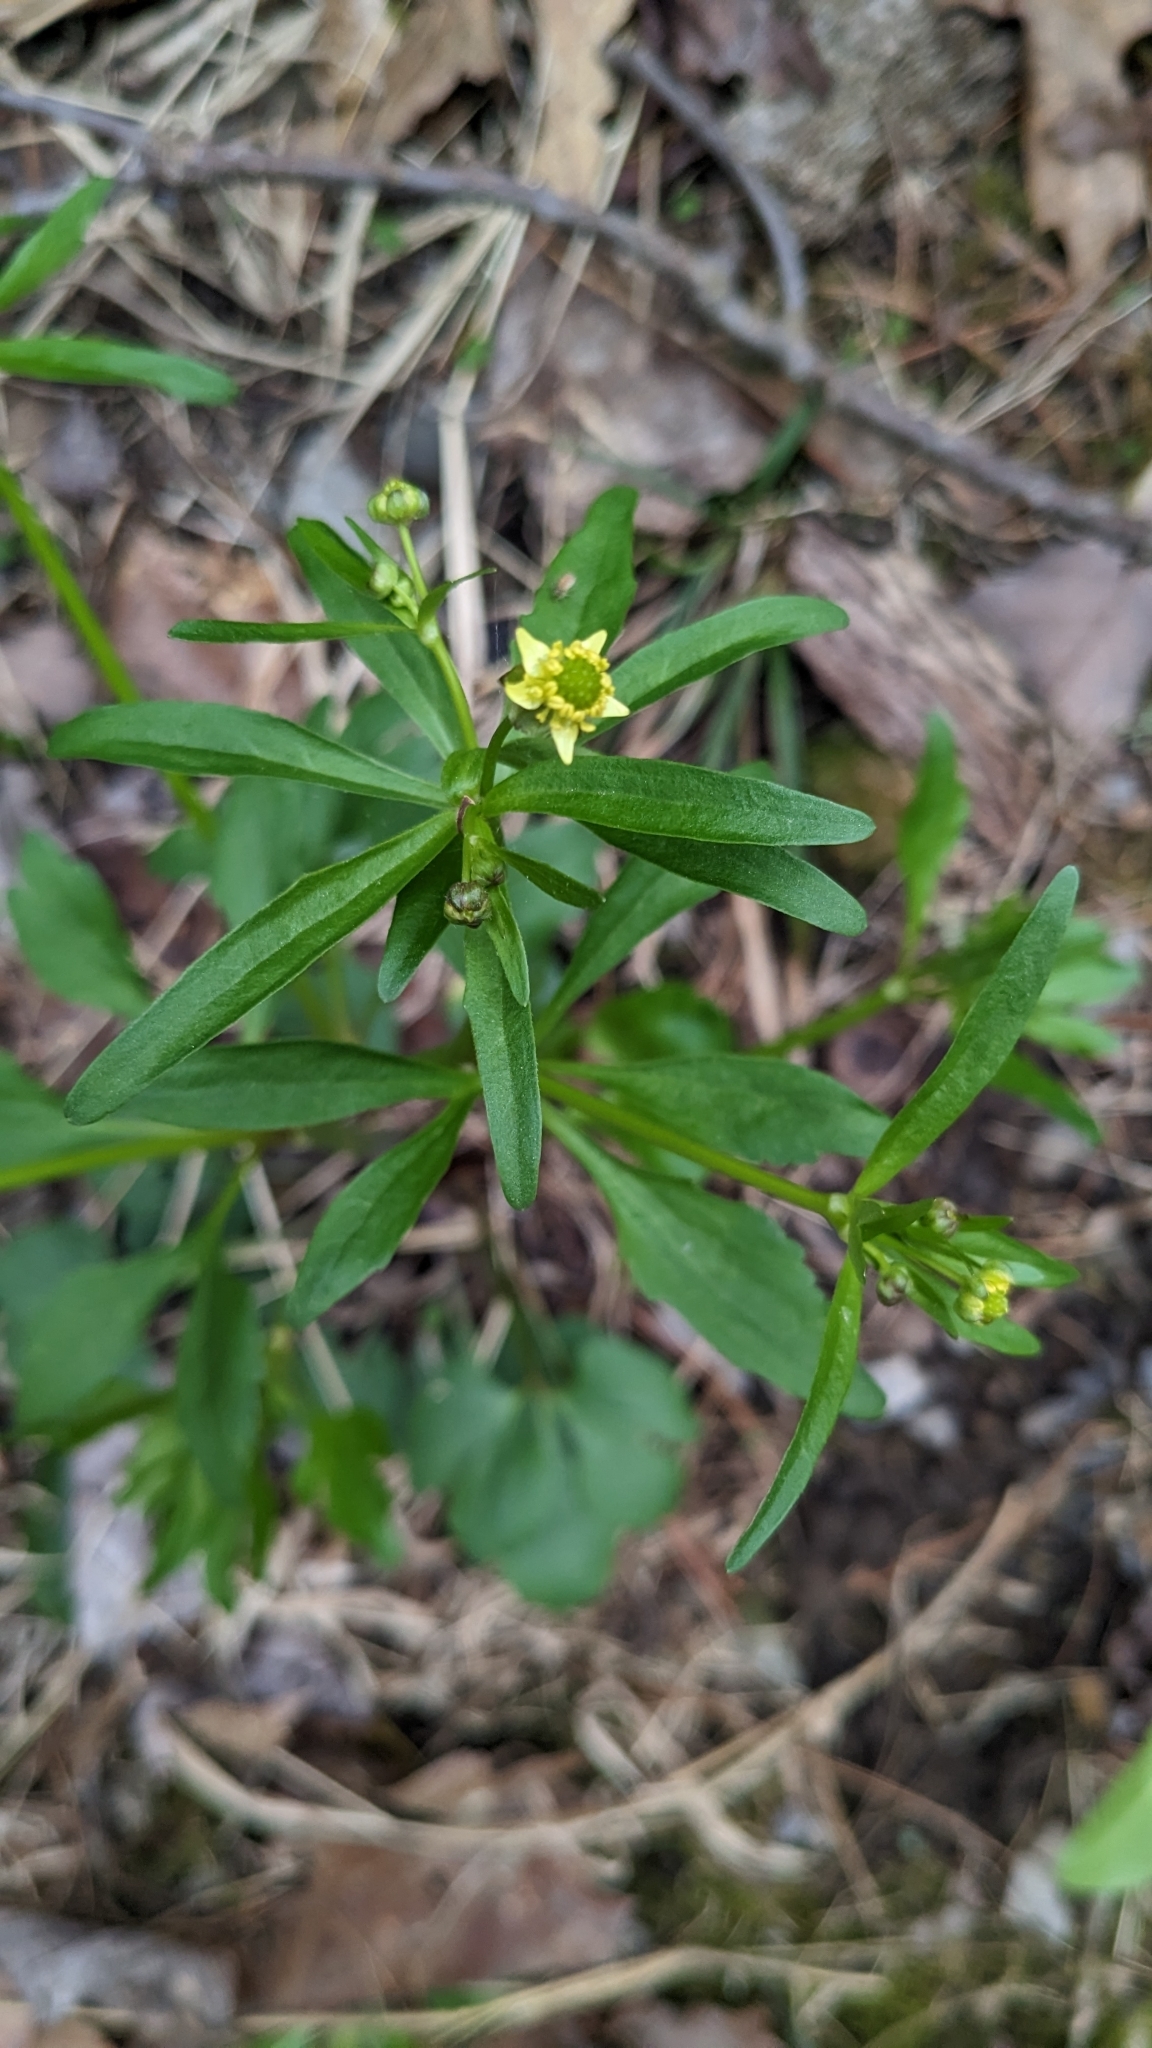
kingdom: Plantae
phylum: Tracheophyta
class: Magnoliopsida
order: Ranunculales
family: Ranunculaceae
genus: Ranunculus
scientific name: Ranunculus abortivus
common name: Early wood buttercup
